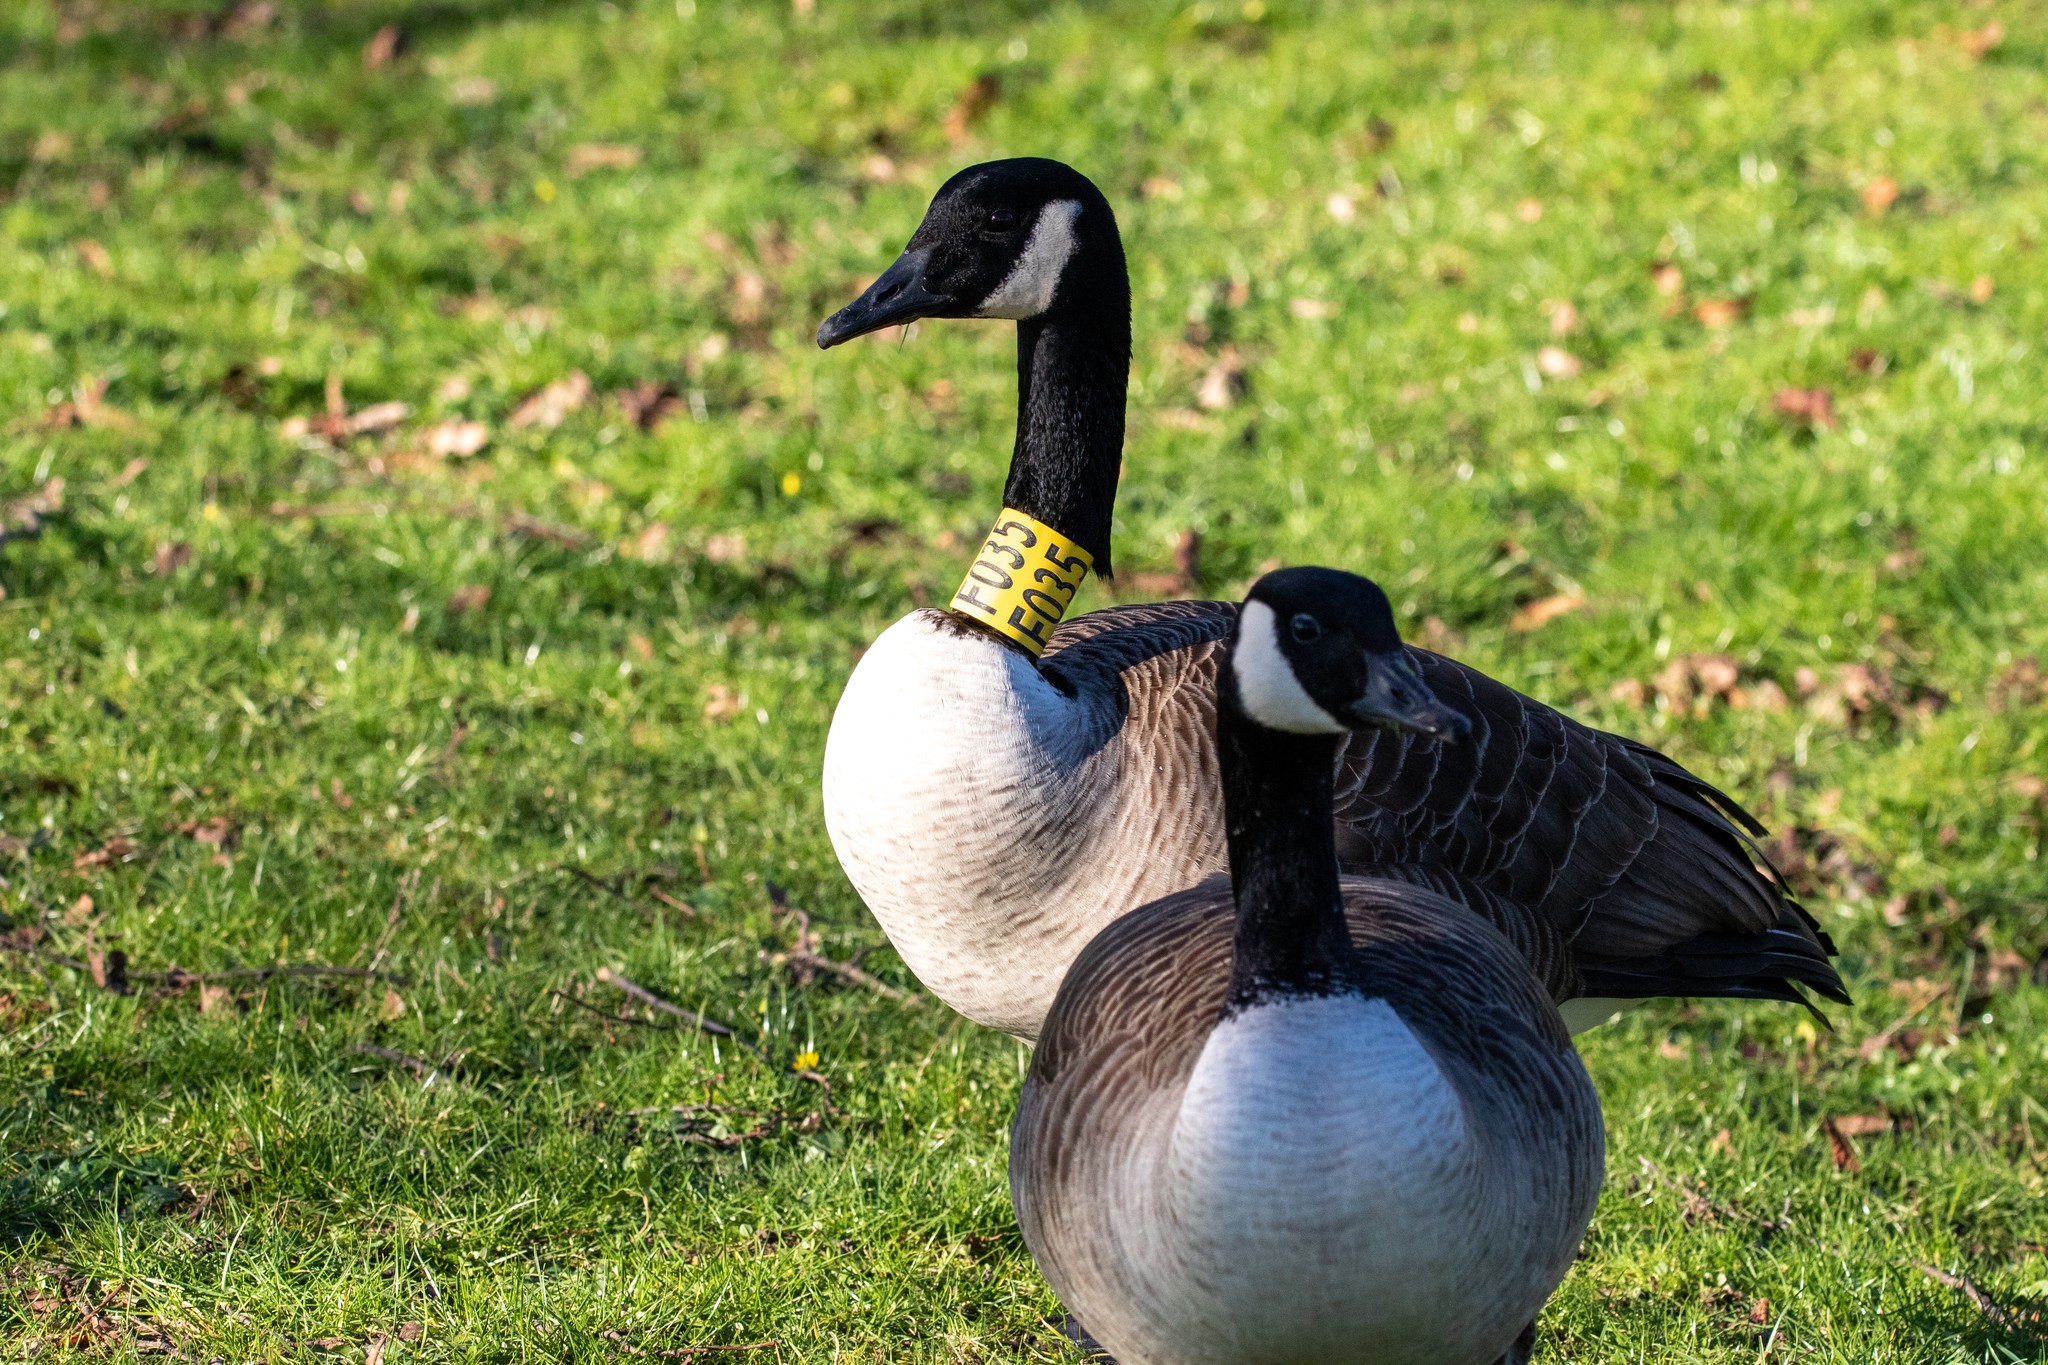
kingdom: Animalia
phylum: Chordata
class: Aves
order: Anseriformes
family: Anatidae
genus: Branta
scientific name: Branta canadensis
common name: Canada goose
